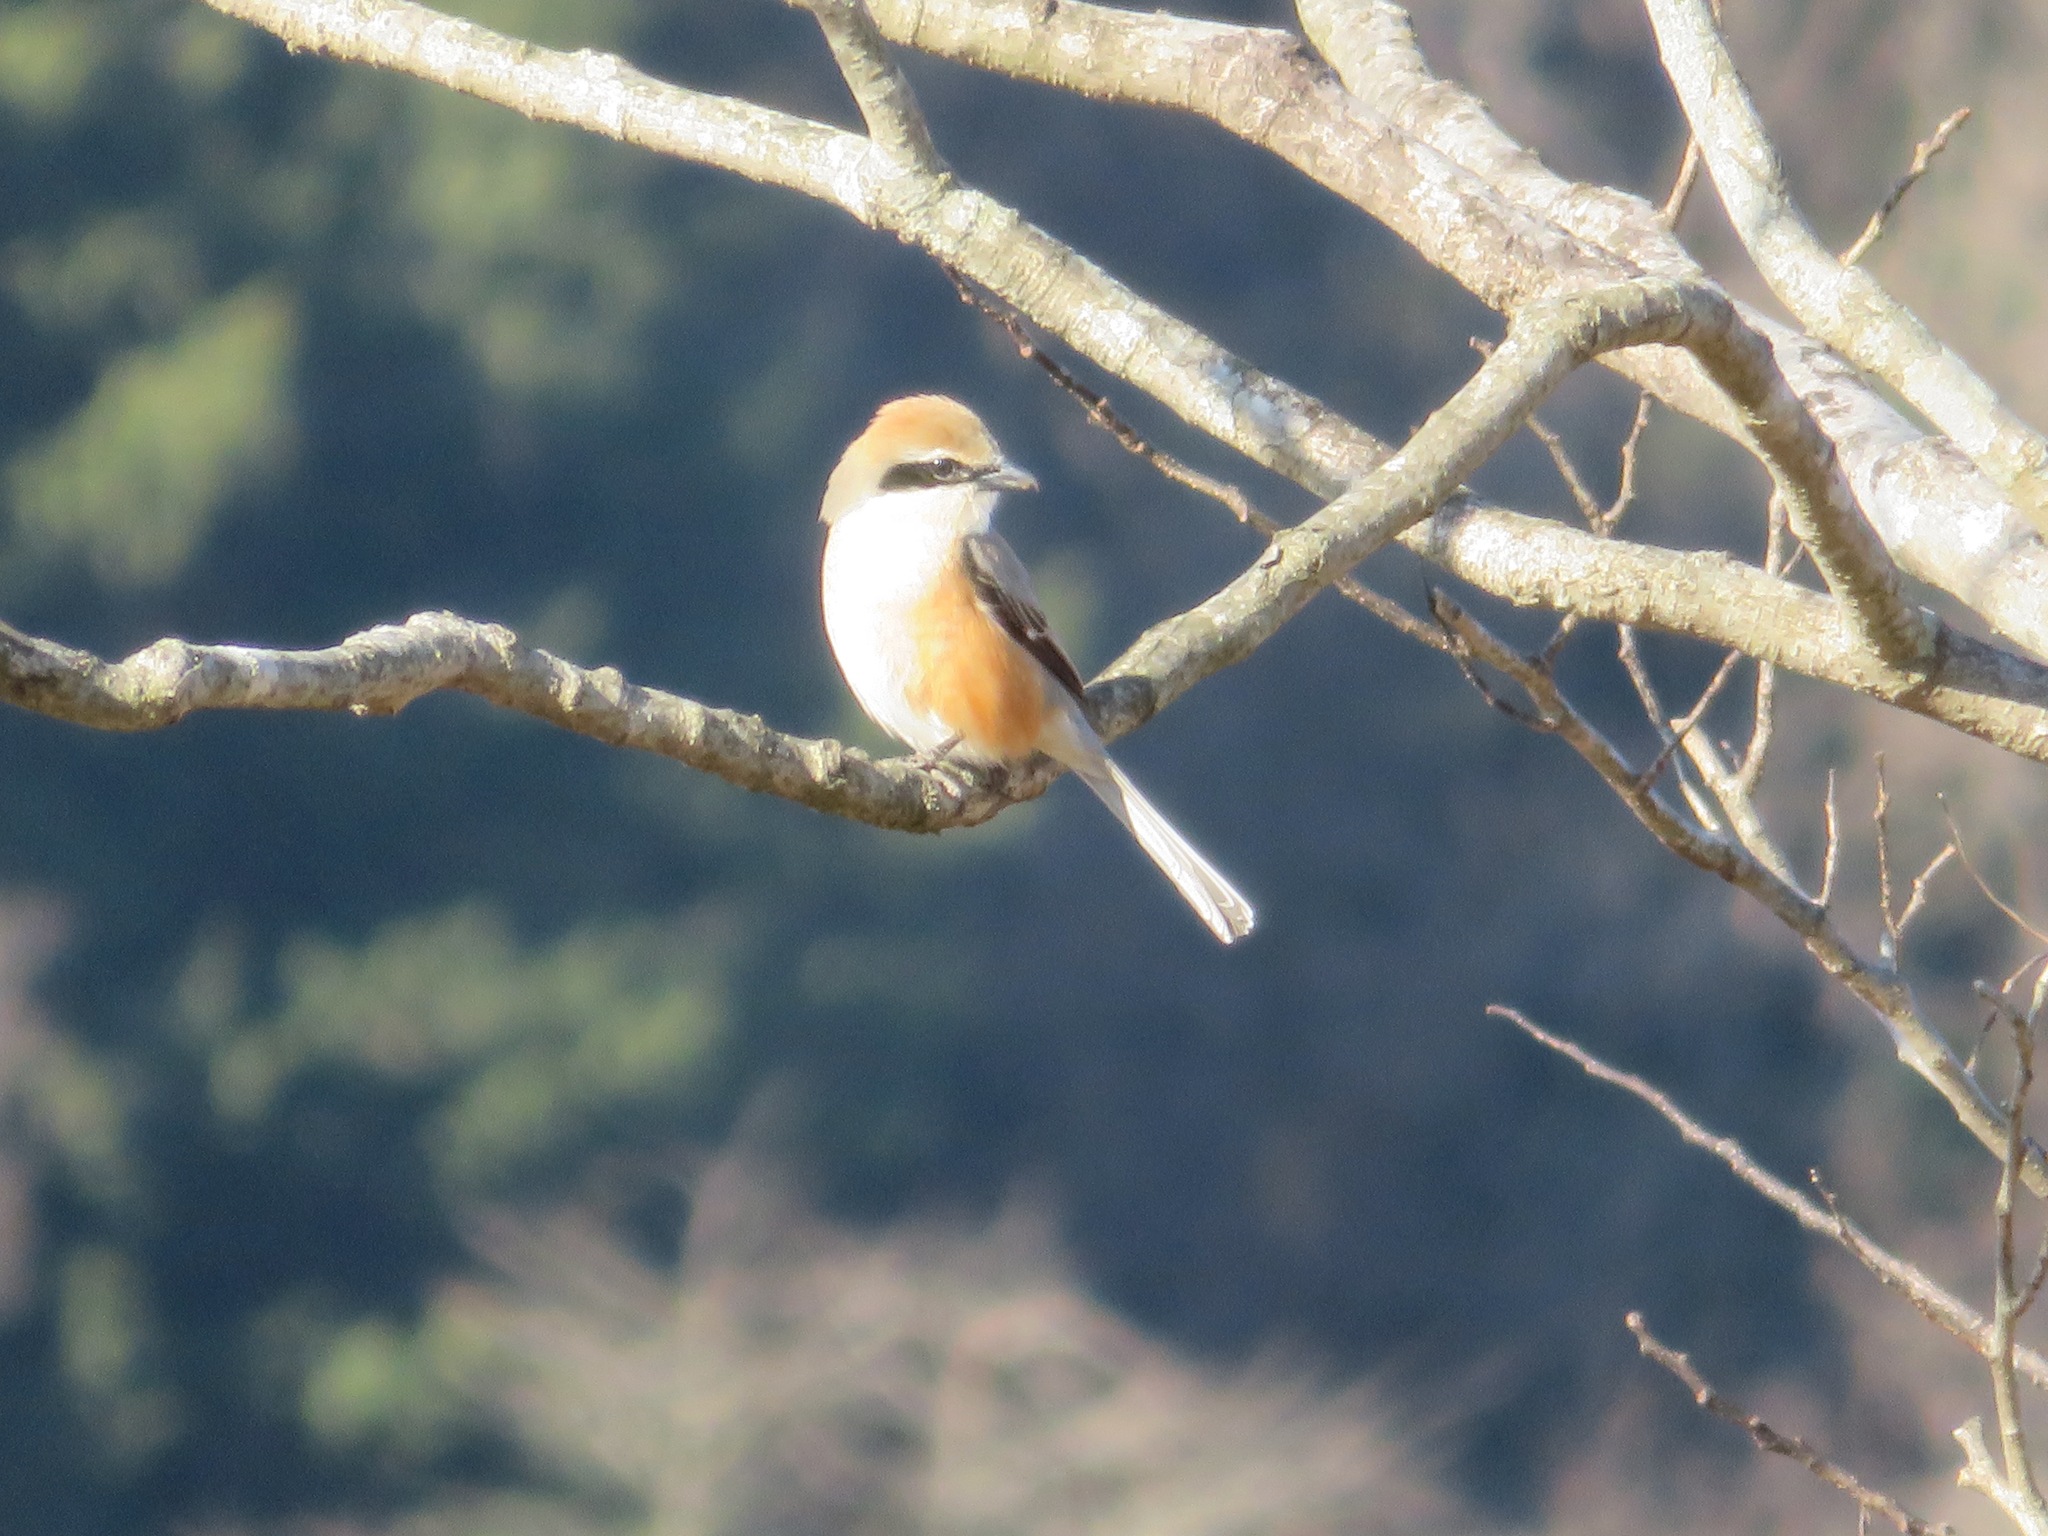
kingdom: Animalia
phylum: Chordata
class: Aves
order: Passeriformes
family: Laniidae
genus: Lanius
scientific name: Lanius bucephalus
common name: Bull-headed shrike
